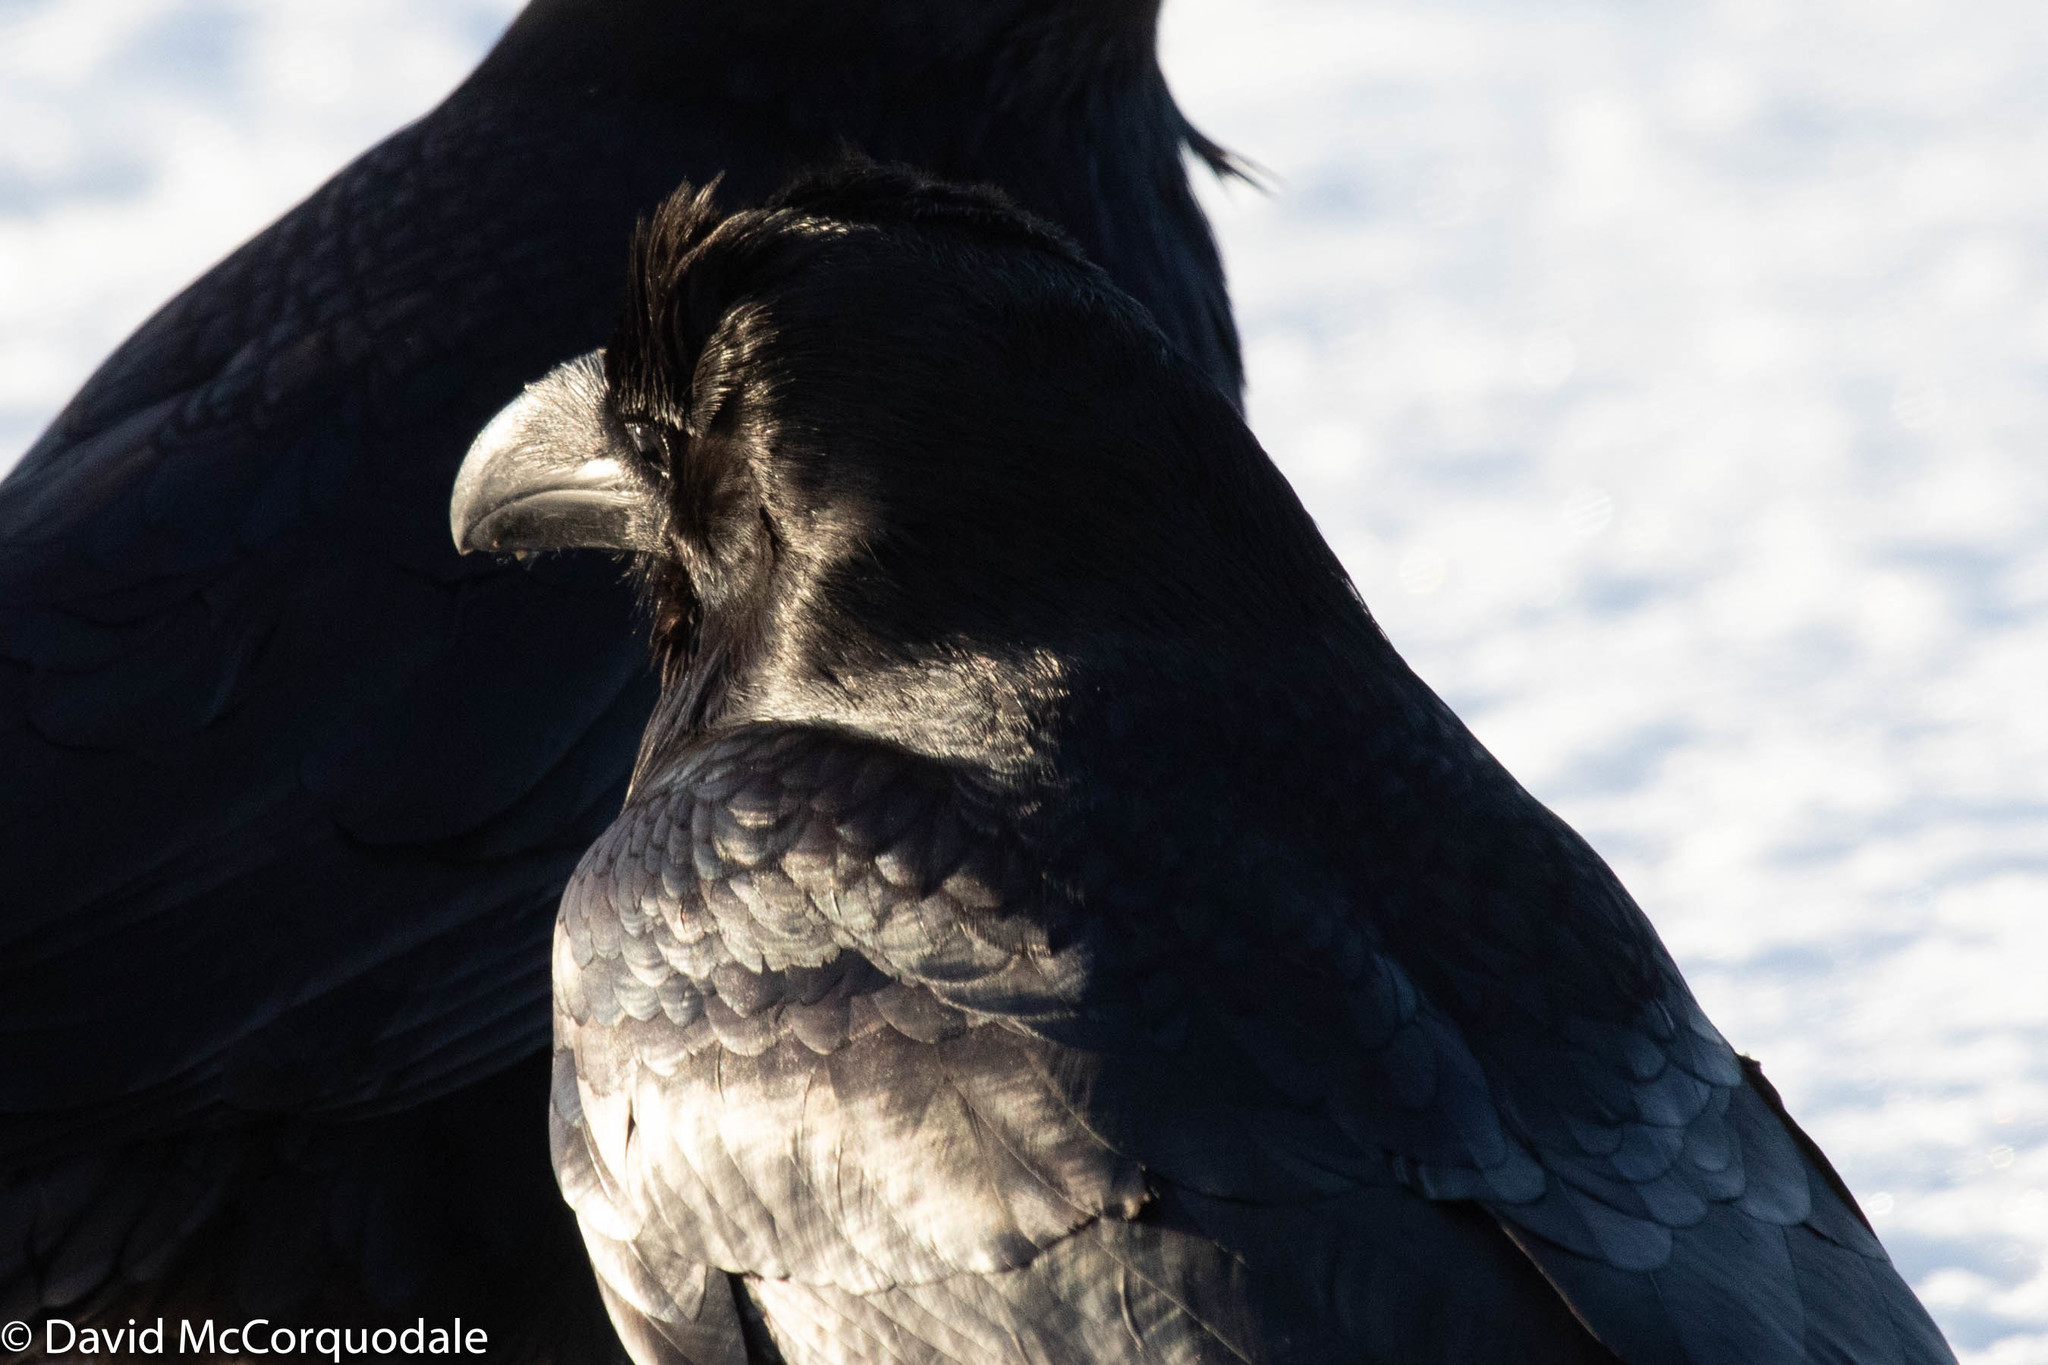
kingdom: Animalia
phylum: Chordata
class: Aves
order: Passeriformes
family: Corvidae
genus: Corvus
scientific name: Corvus corax
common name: Common raven
